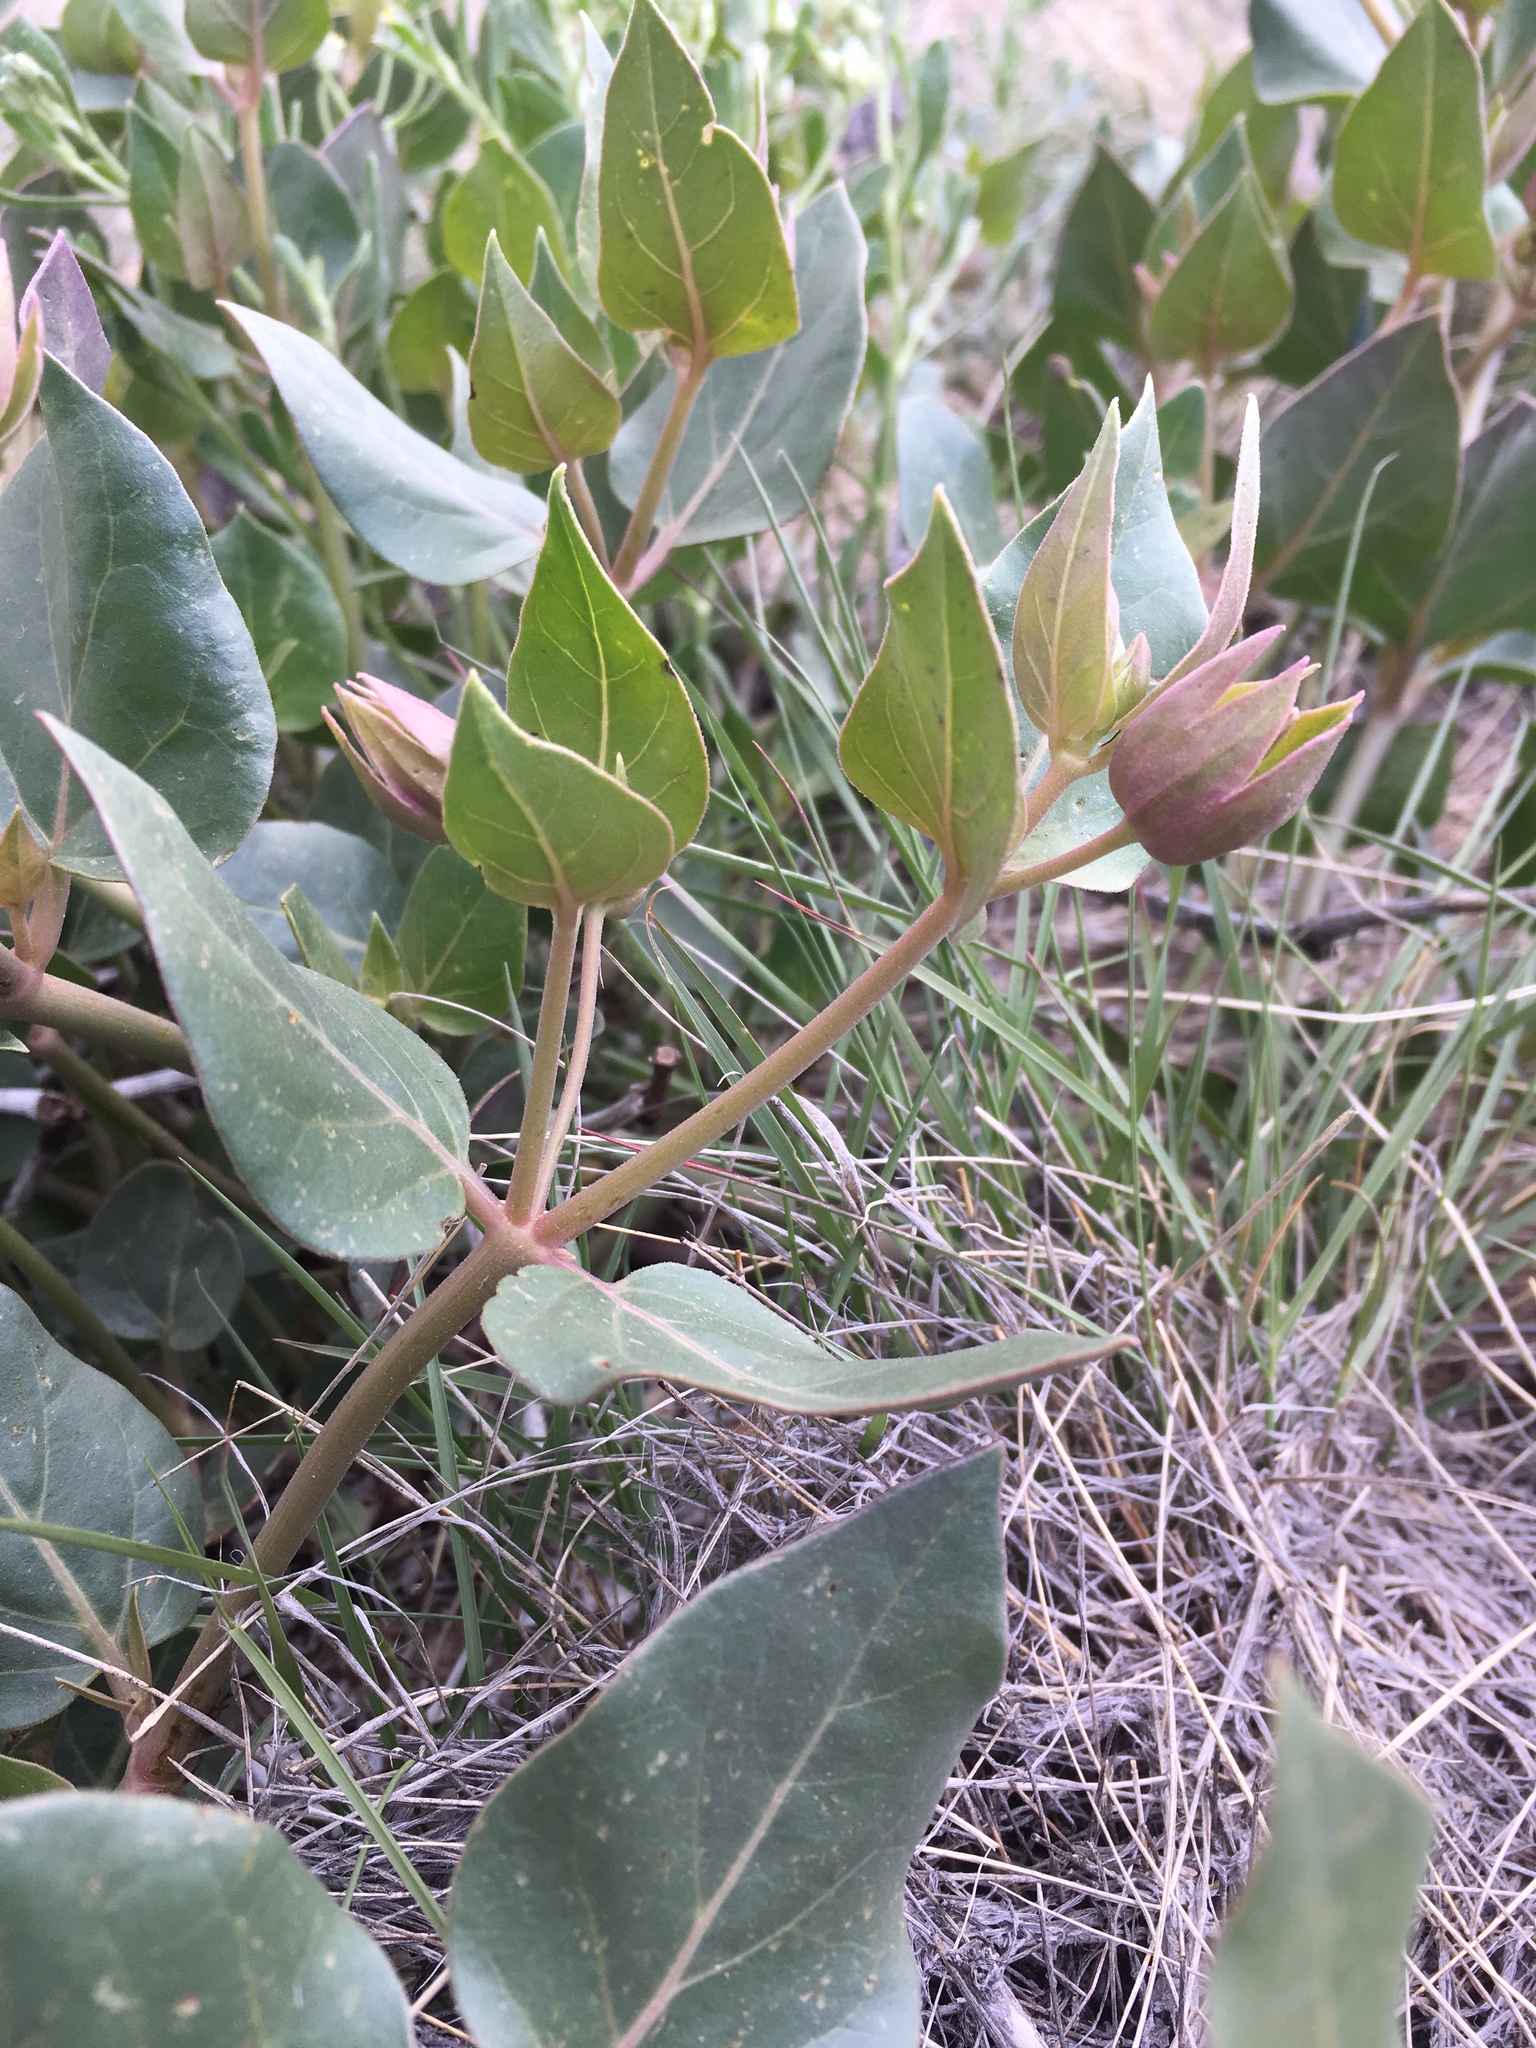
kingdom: Plantae
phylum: Tracheophyta
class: Magnoliopsida
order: Caryophyllales
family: Nyctaginaceae
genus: Mirabilis
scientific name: Mirabilis multiflora
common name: Froebel's four-o'clock
